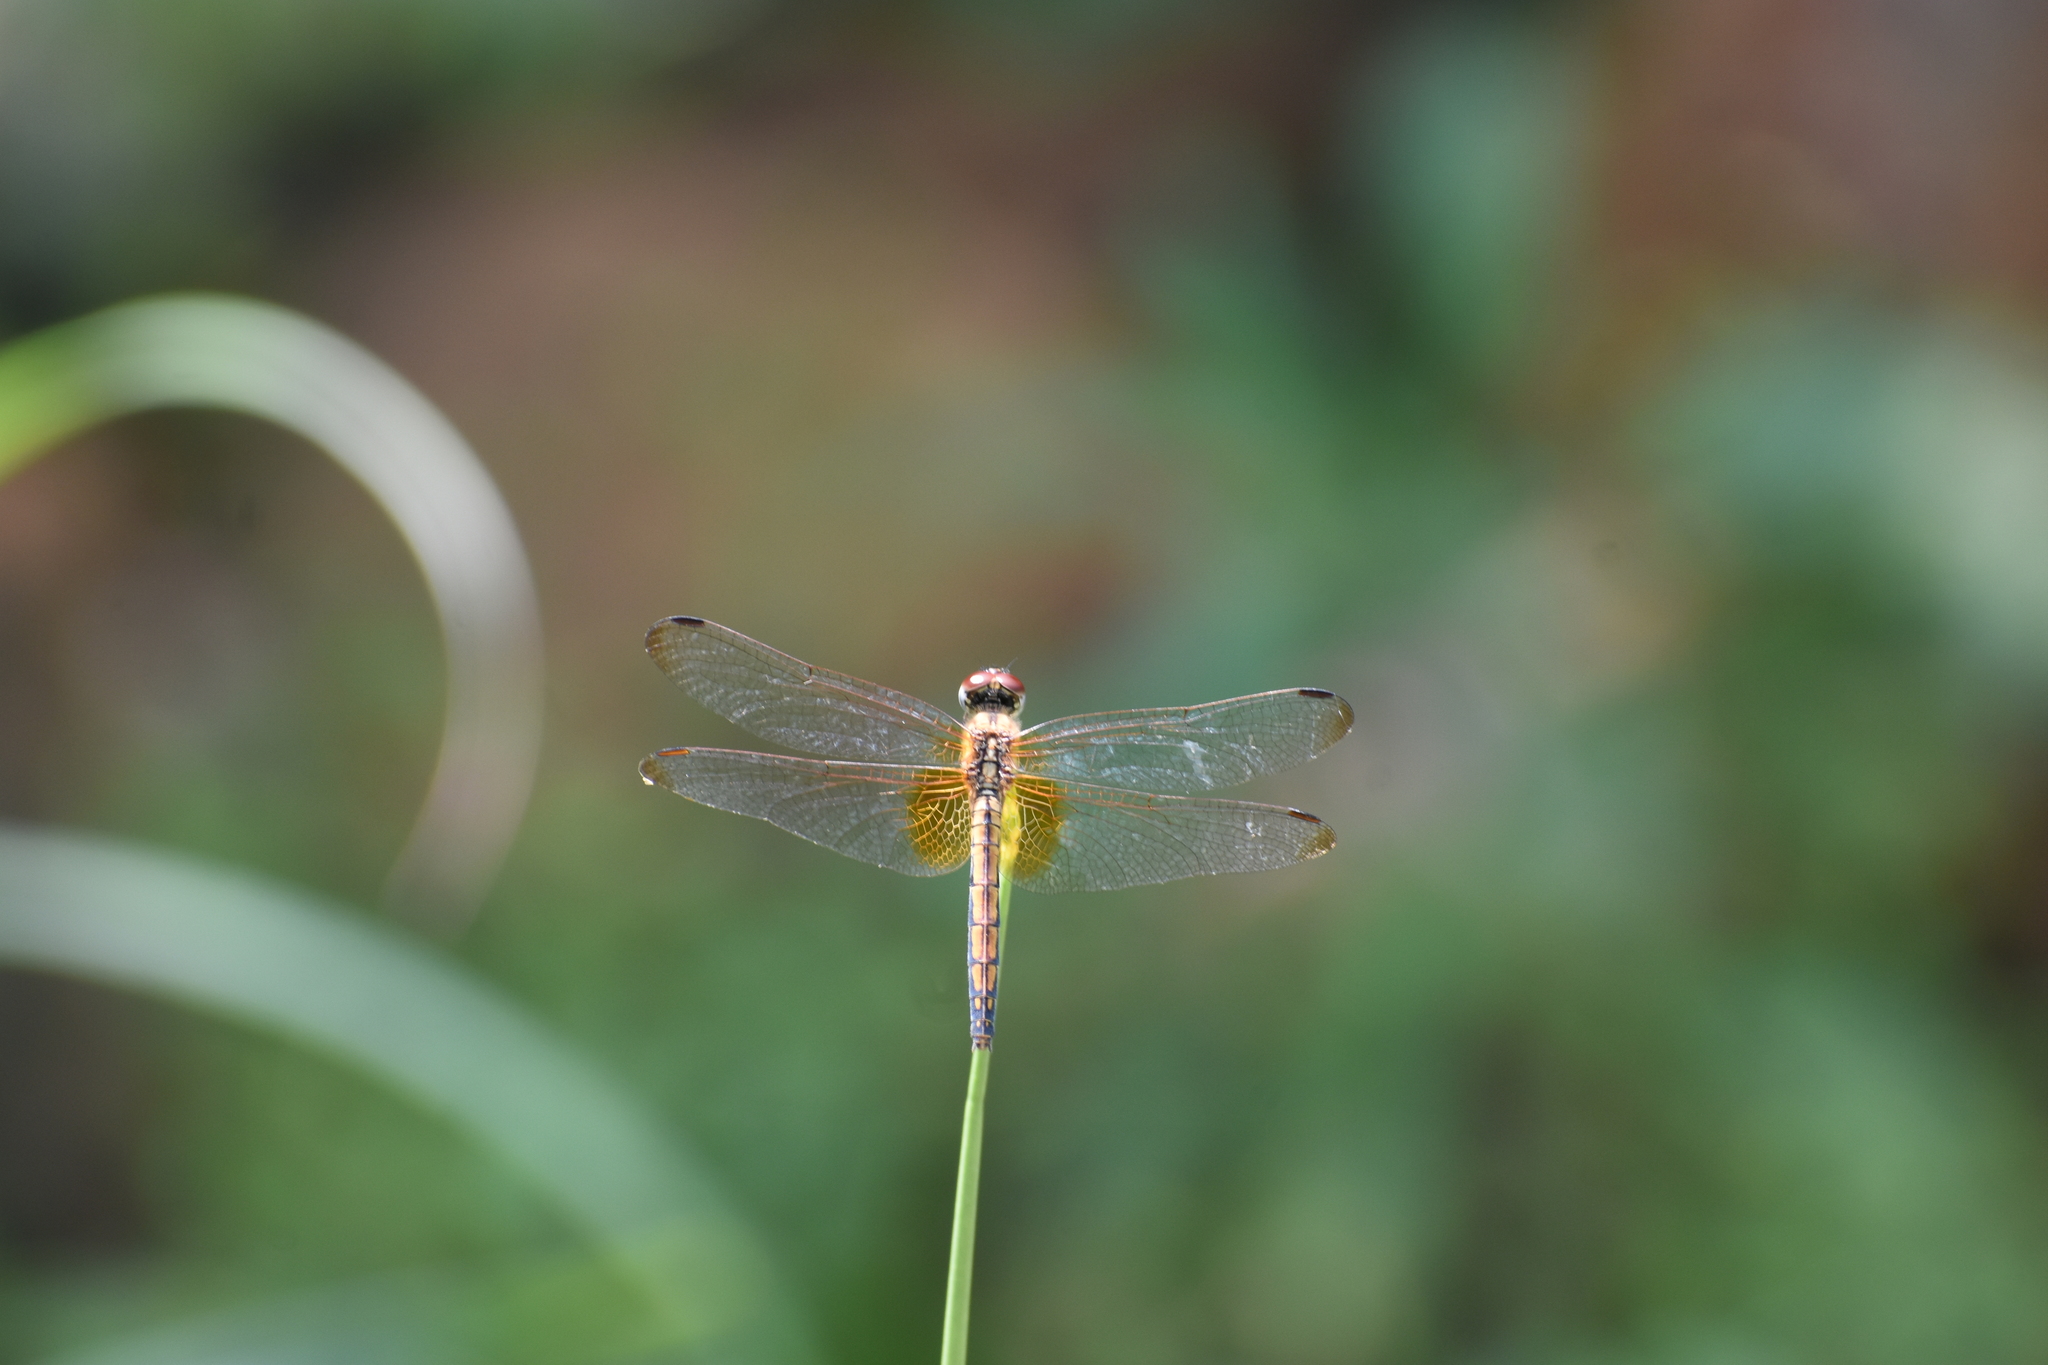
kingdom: Animalia
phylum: Arthropoda
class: Insecta
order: Odonata
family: Libellulidae
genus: Trithemis
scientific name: Trithemis aurora
